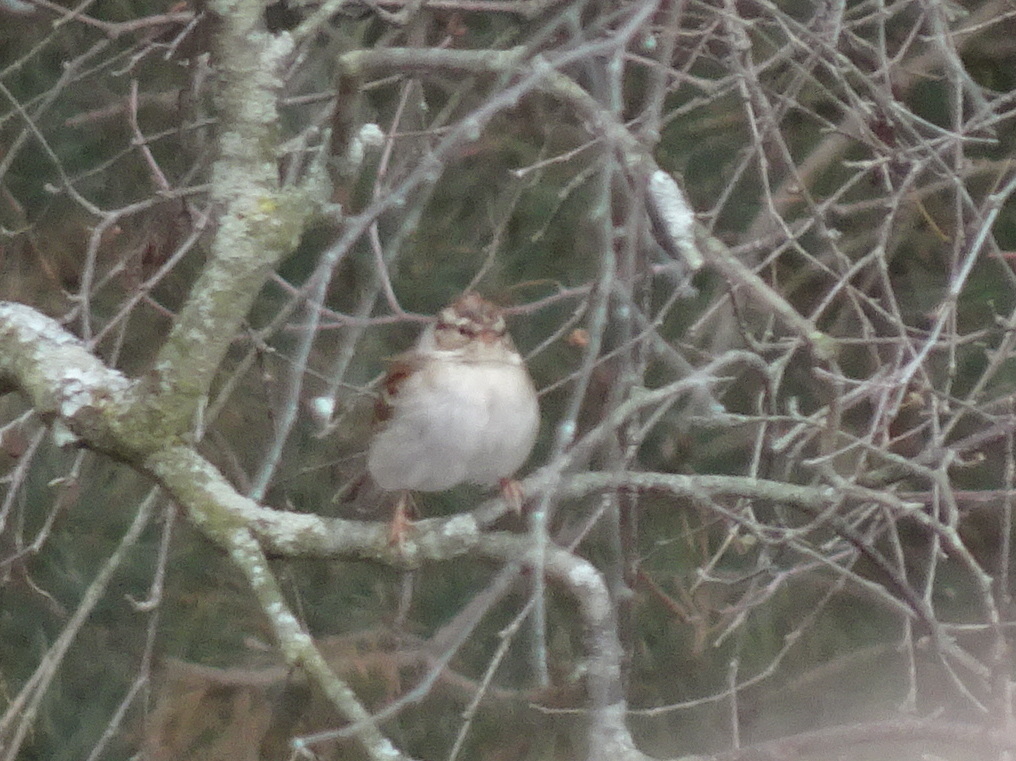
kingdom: Animalia
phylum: Chordata
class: Aves
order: Passeriformes
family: Passerellidae
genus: Spizella
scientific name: Spizella passerina
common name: Chipping sparrow
